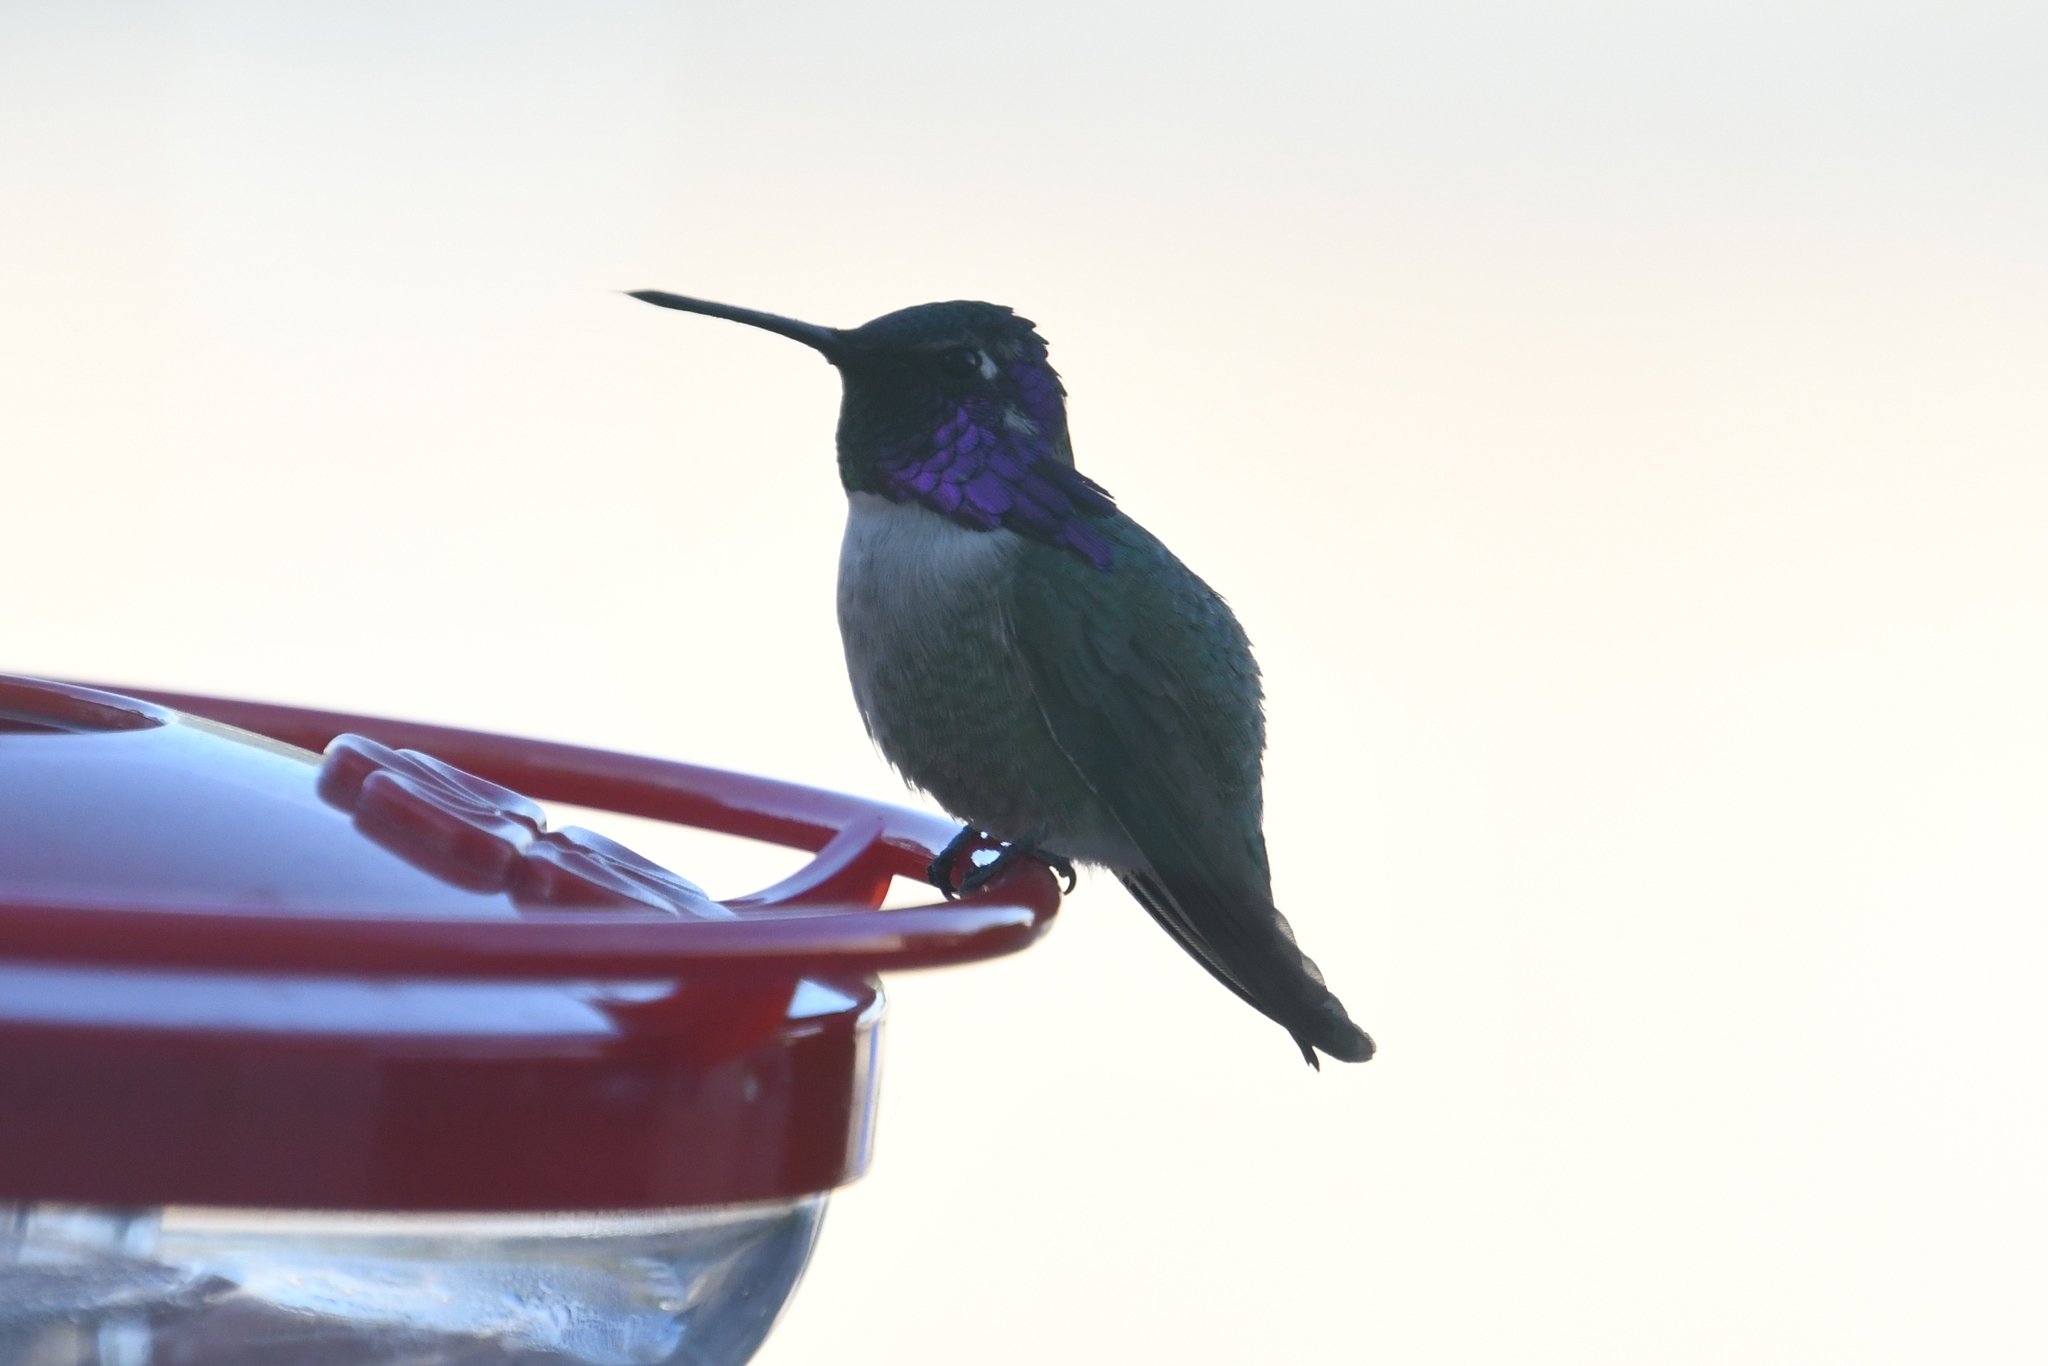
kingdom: Animalia
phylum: Chordata
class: Aves
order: Apodiformes
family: Trochilidae
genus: Calypte
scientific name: Calypte costae
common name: Costa's hummingbird
